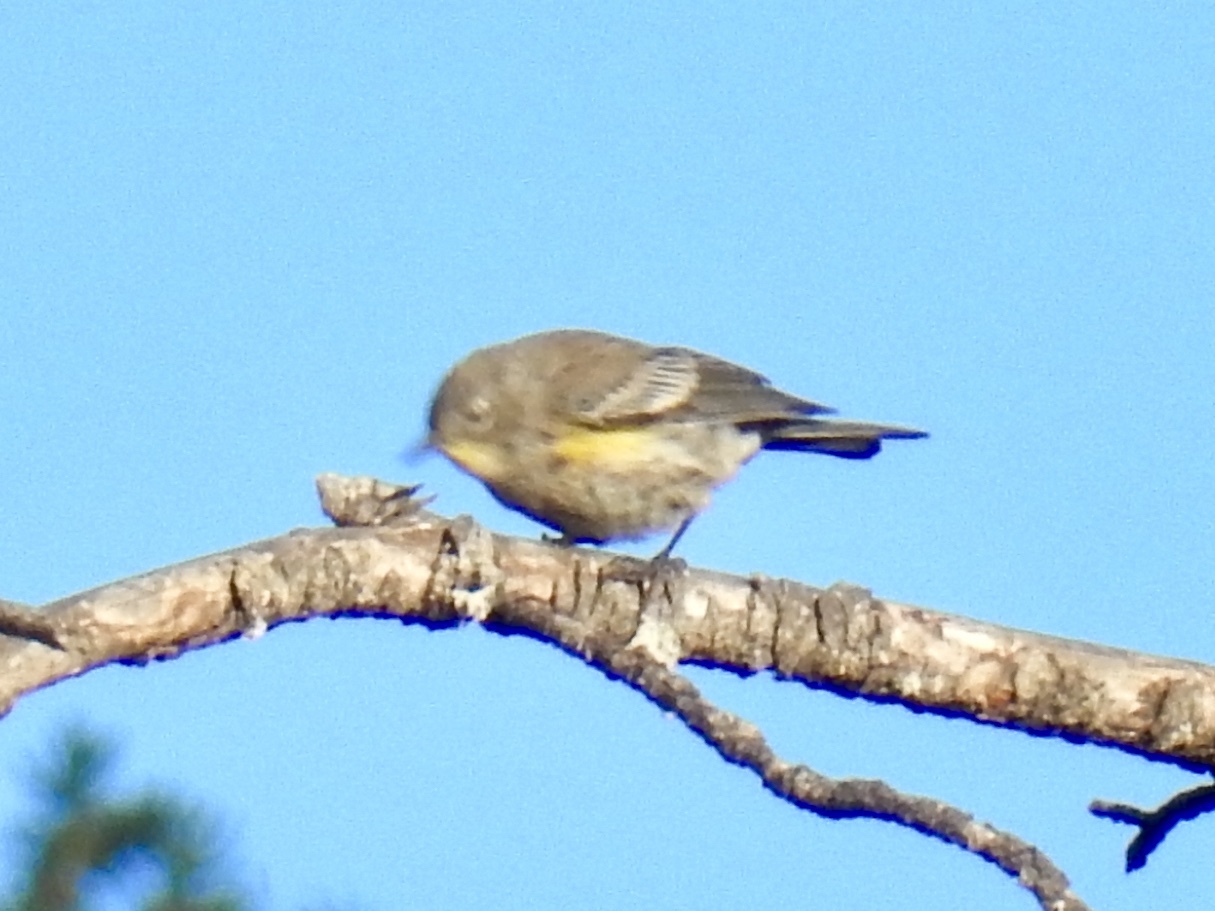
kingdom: Animalia
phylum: Chordata
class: Aves
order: Passeriformes
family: Parulidae
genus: Setophaga
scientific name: Setophaga coronata
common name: Myrtle warbler
